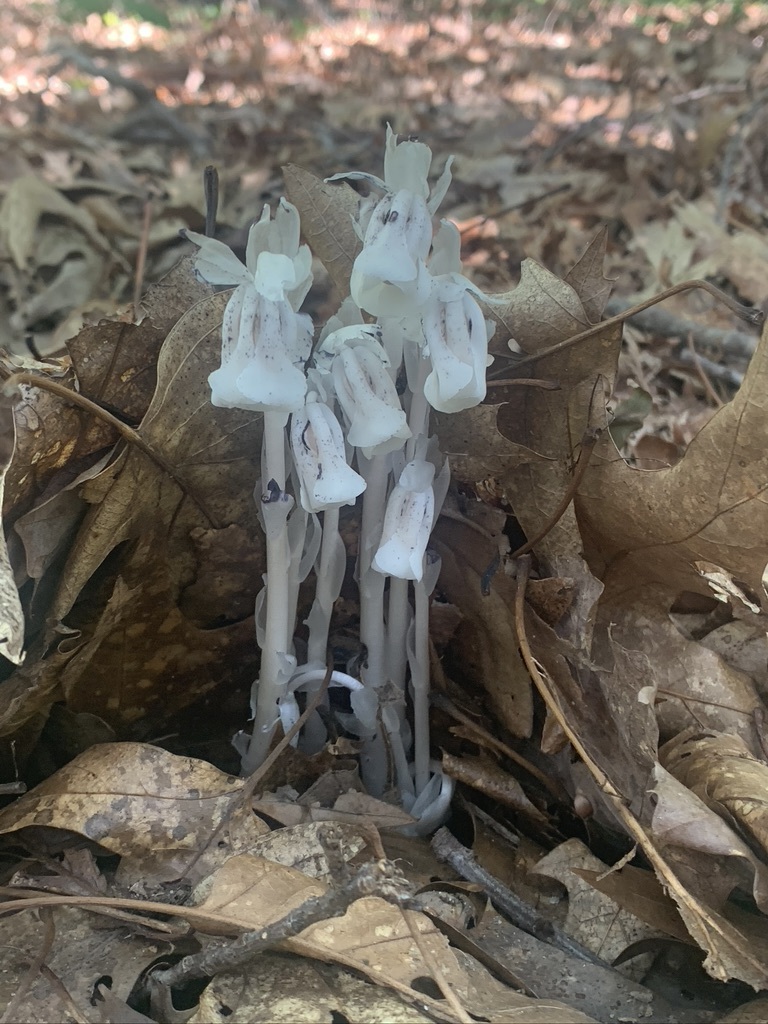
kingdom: Plantae
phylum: Tracheophyta
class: Magnoliopsida
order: Ericales
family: Ericaceae
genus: Monotropa
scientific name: Monotropa uniflora
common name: Convulsion root
